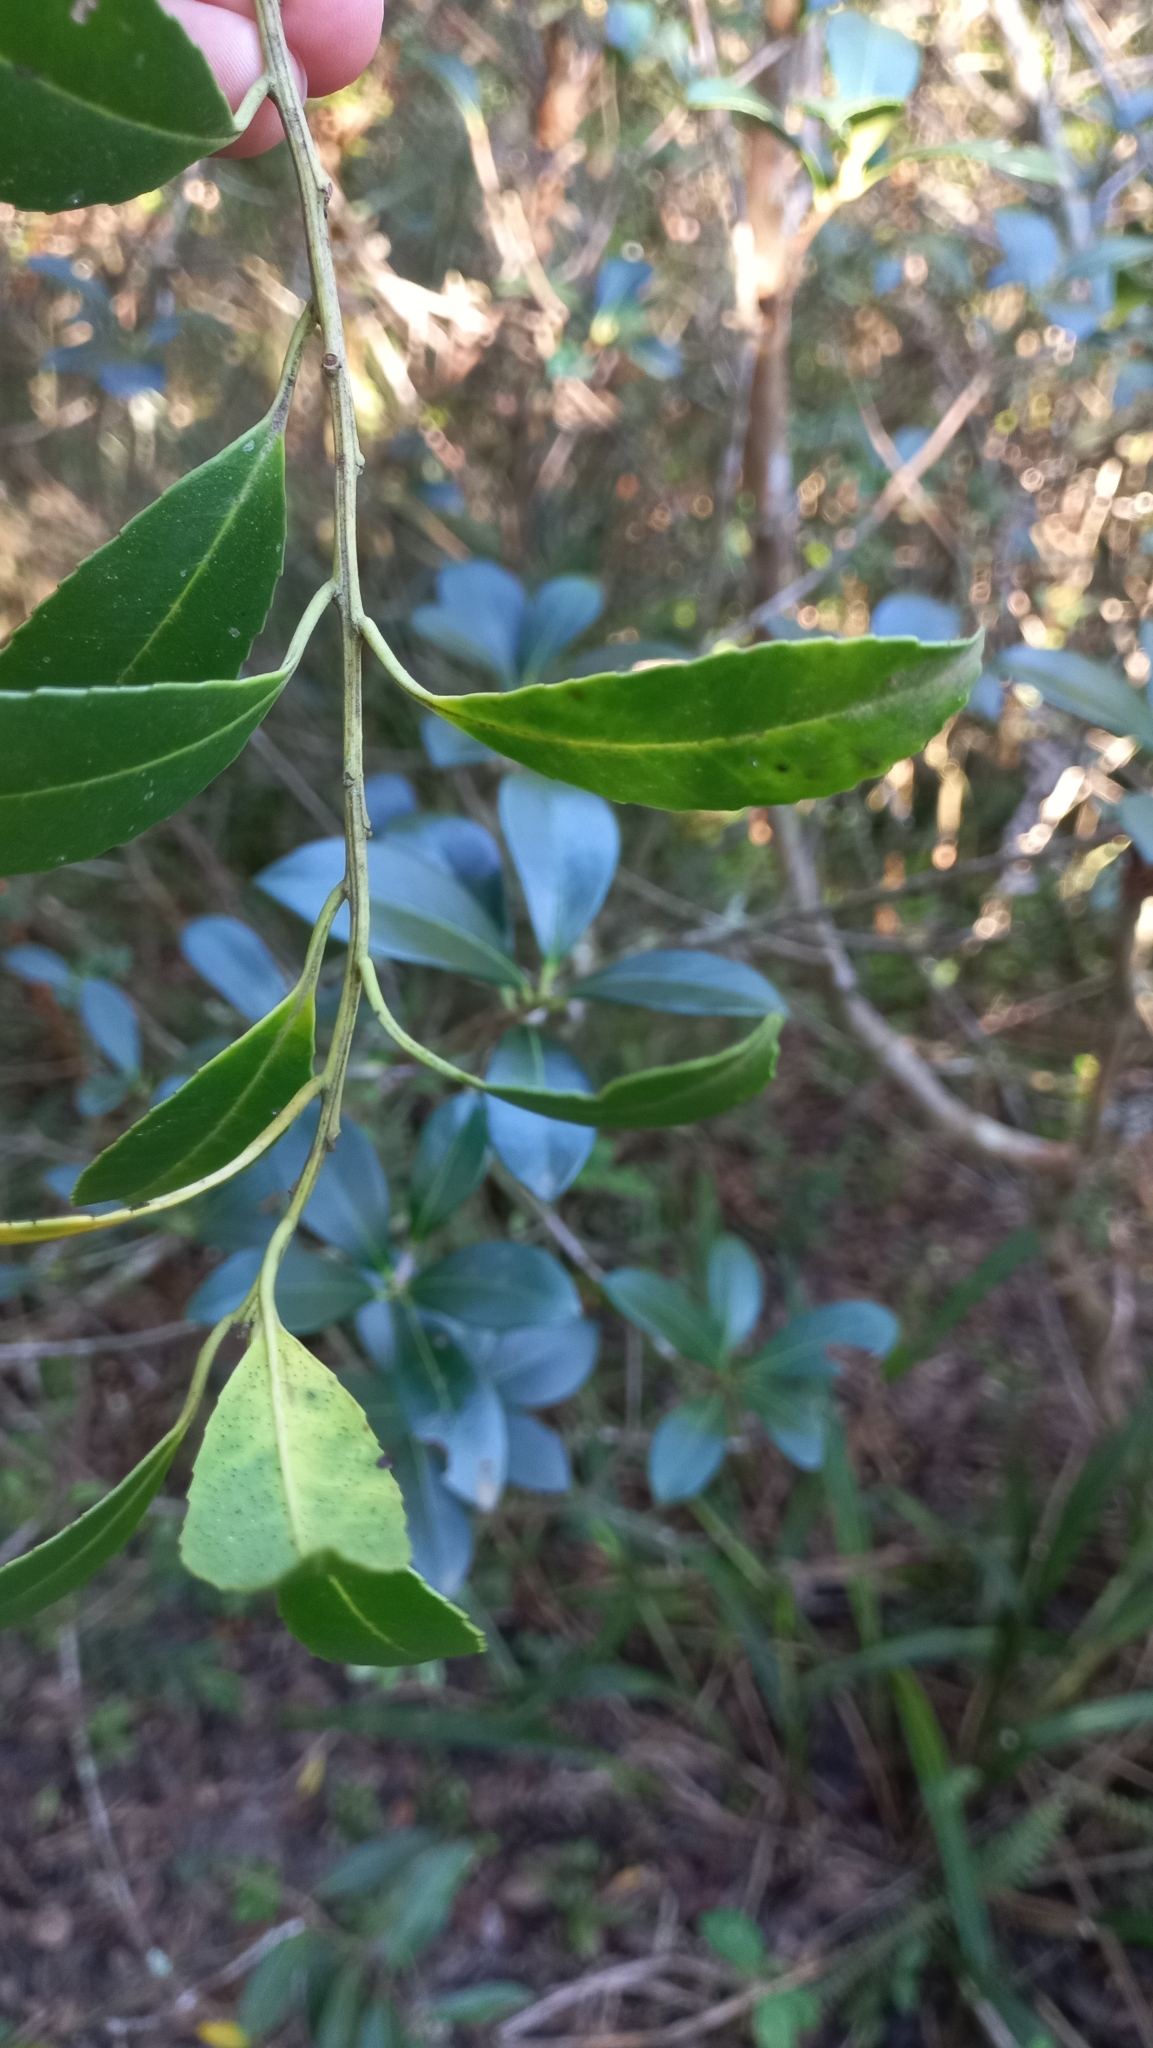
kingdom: Plantae
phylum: Tracheophyta
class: Magnoliopsida
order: Aquifoliales
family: Aquifoliaceae
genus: Ilex
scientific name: Ilex dumosa
